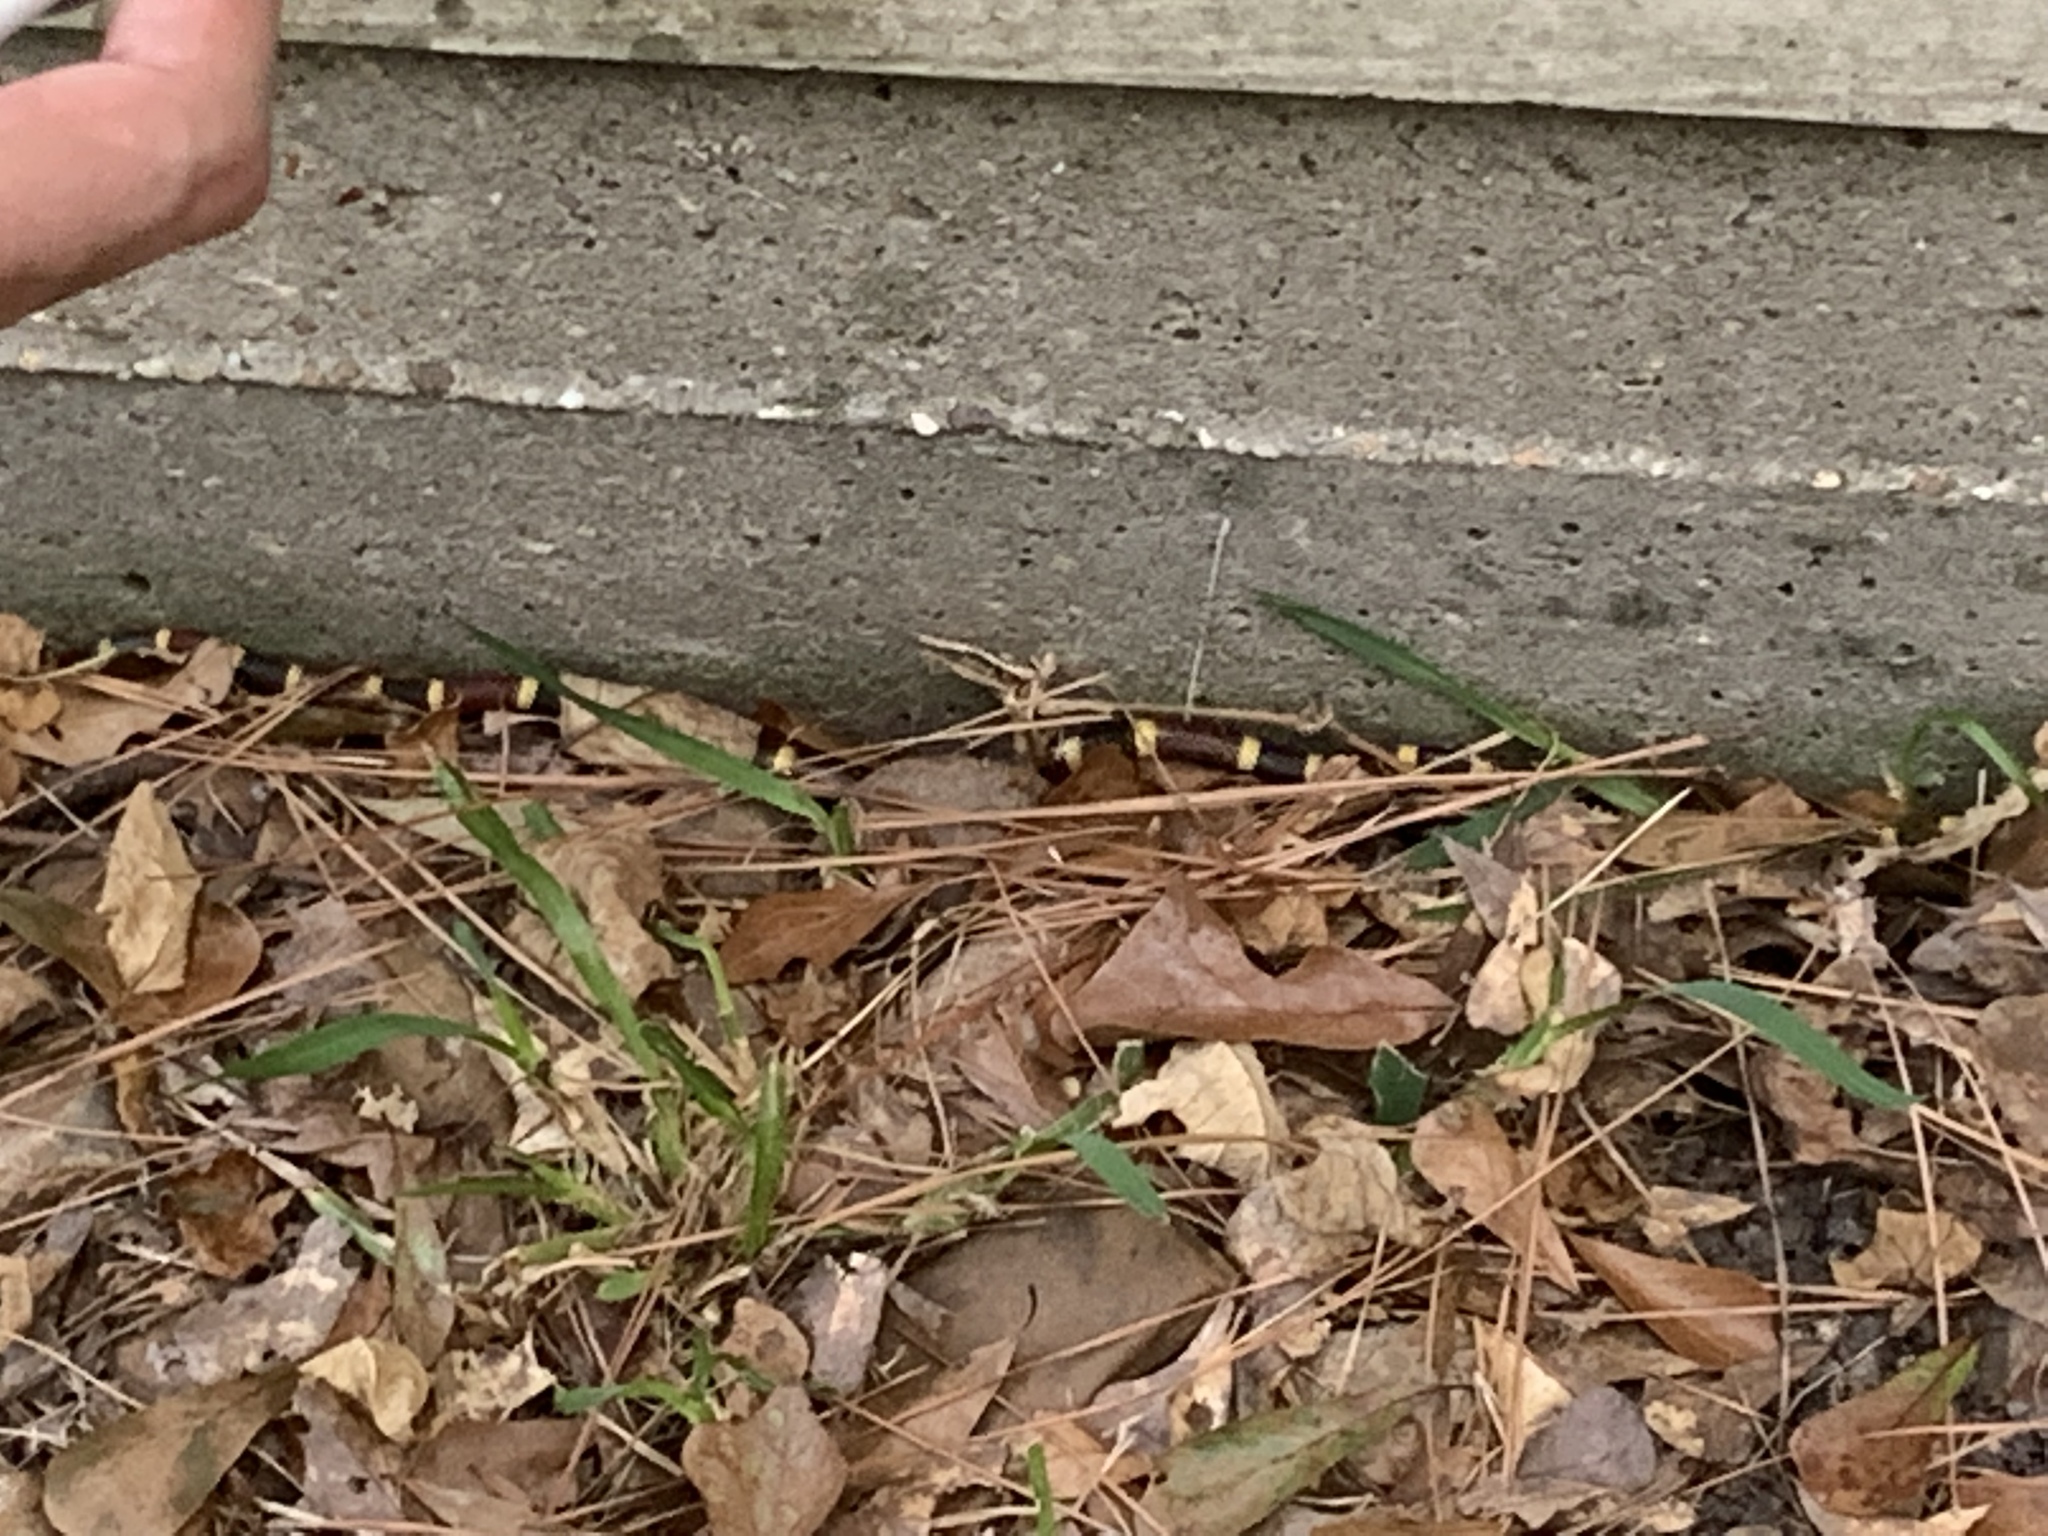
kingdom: Animalia
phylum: Chordata
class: Squamata
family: Elapidae
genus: Micrurus
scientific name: Micrurus tener
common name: Texas coral snake
